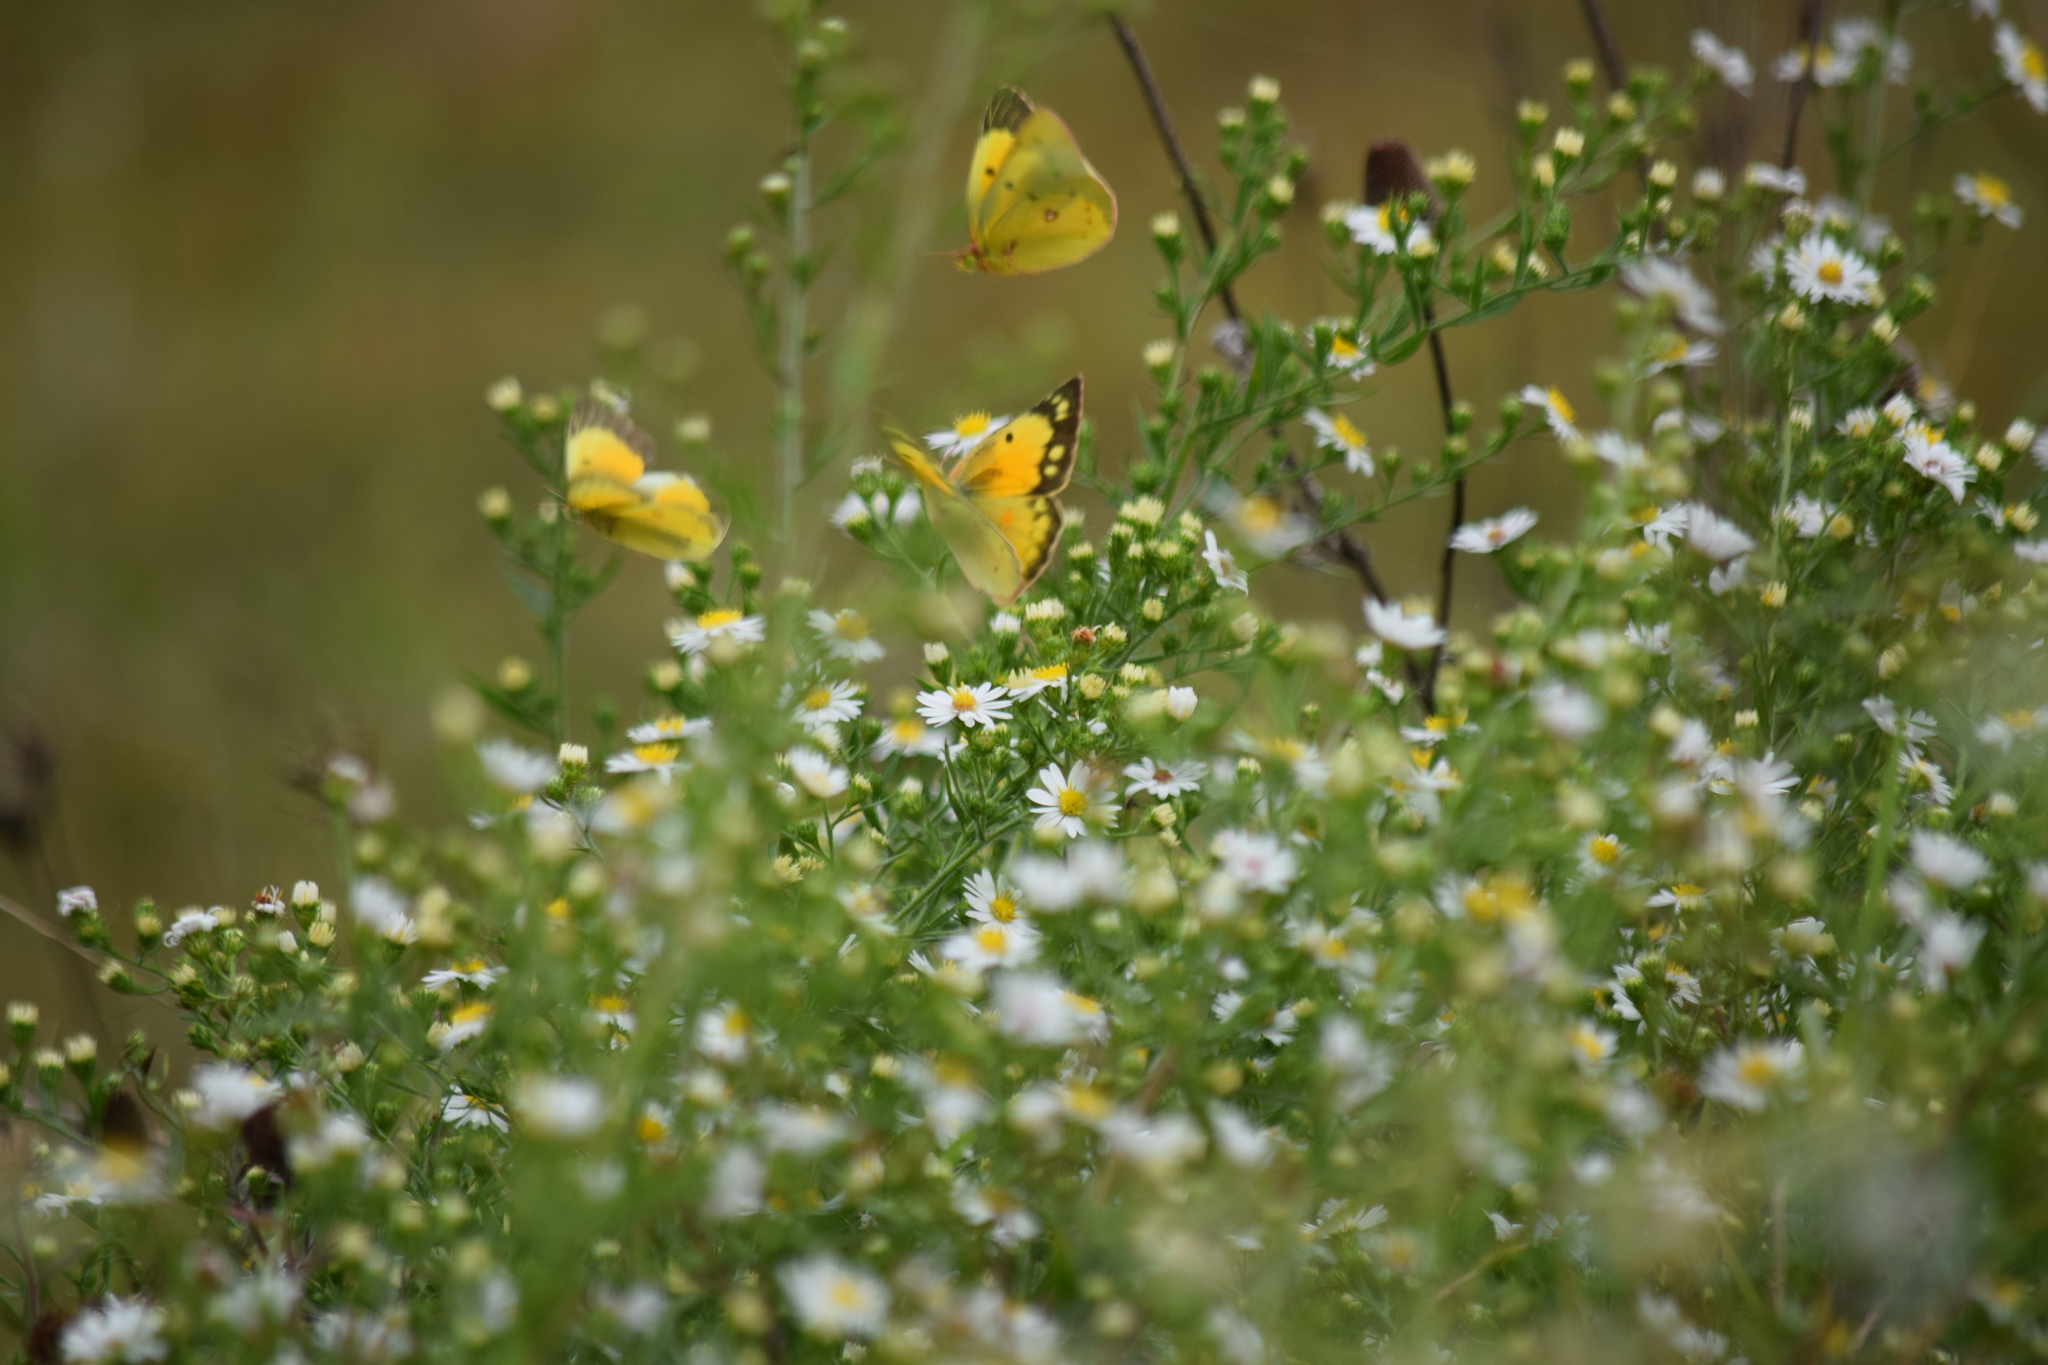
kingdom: Animalia
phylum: Arthropoda
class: Insecta
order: Lepidoptera
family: Pieridae
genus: Colias
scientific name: Colias eurytheme
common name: Alfalfa butterfly
